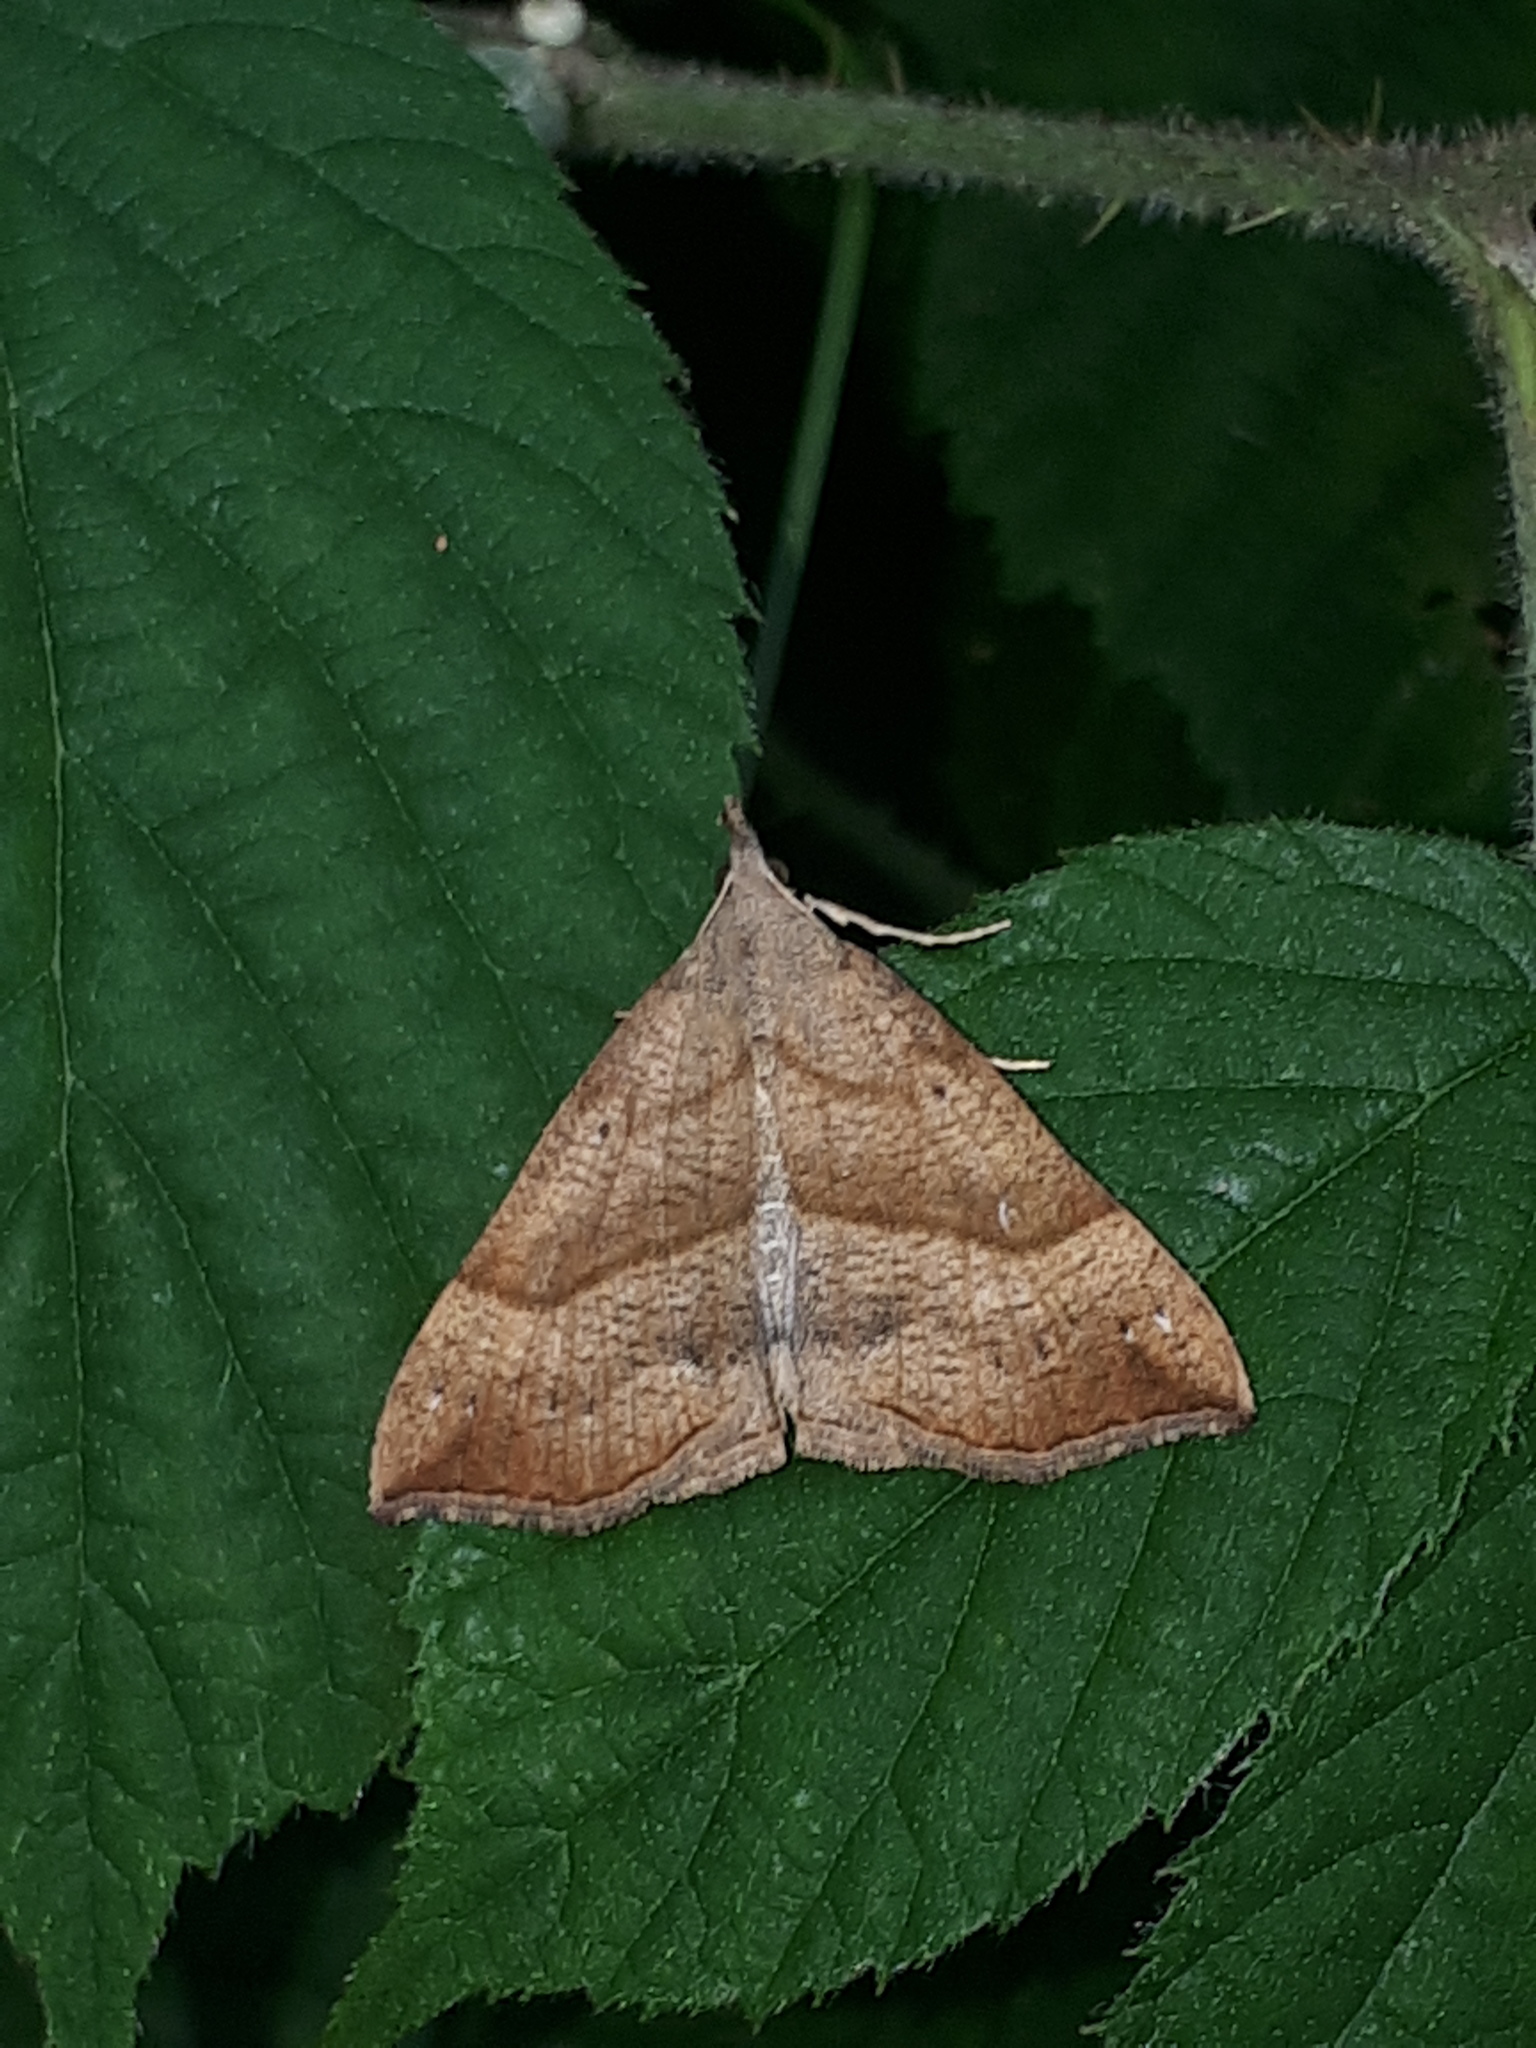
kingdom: Animalia
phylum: Arthropoda
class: Insecta
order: Lepidoptera
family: Erebidae
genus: Hypena
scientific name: Hypena proboscidalis
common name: Snout
